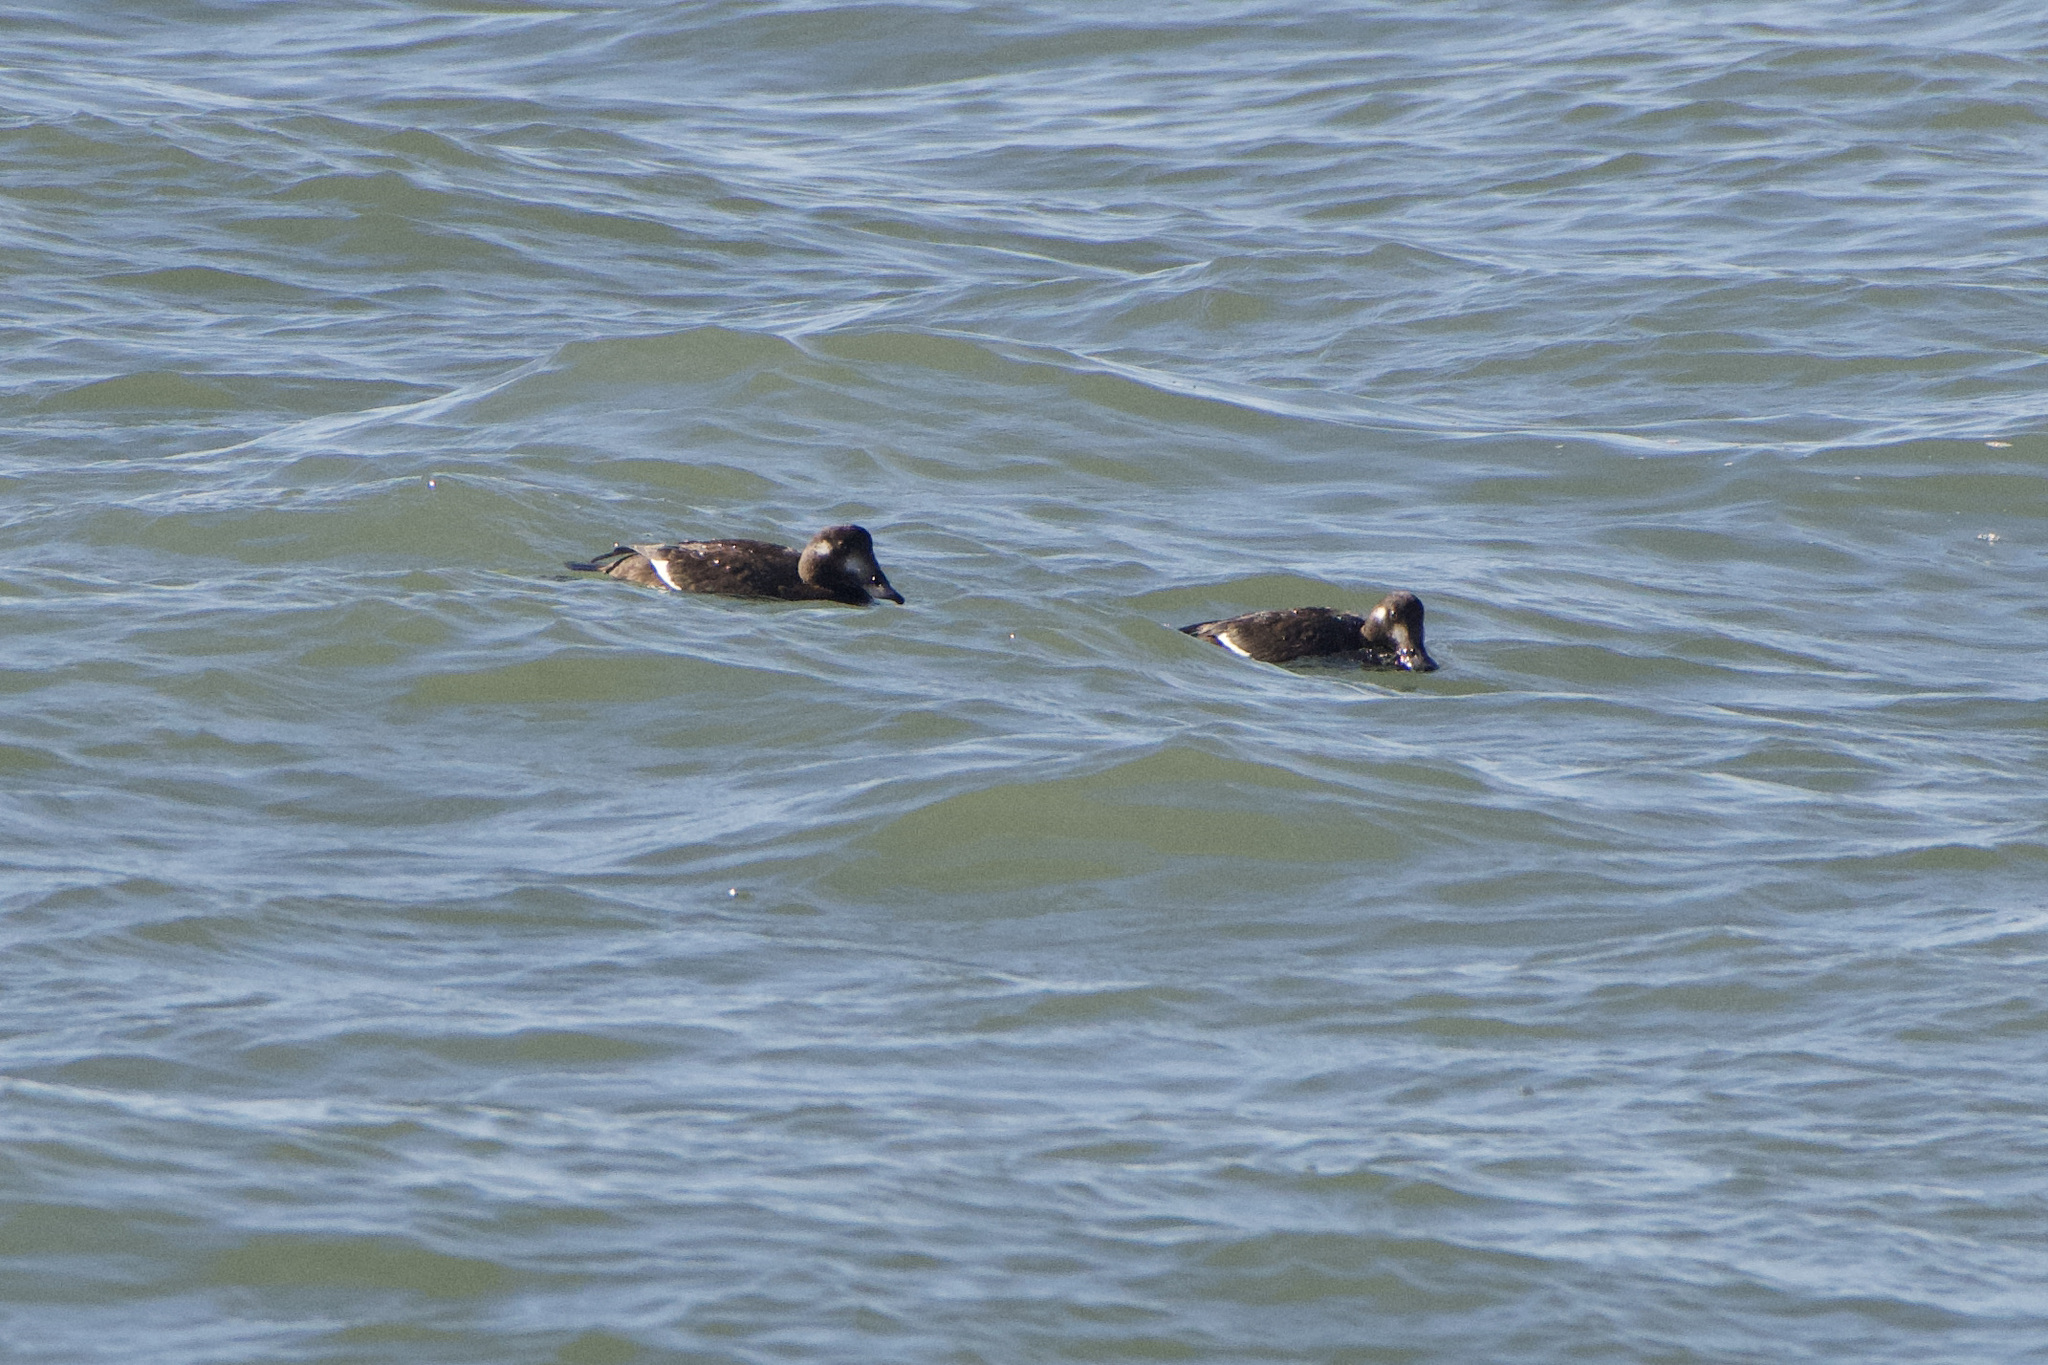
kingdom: Animalia
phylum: Chordata
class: Aves
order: Anseriformes
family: Anatidae
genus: Melanitta
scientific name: Melanitta deglandi
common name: White-winged scoter
